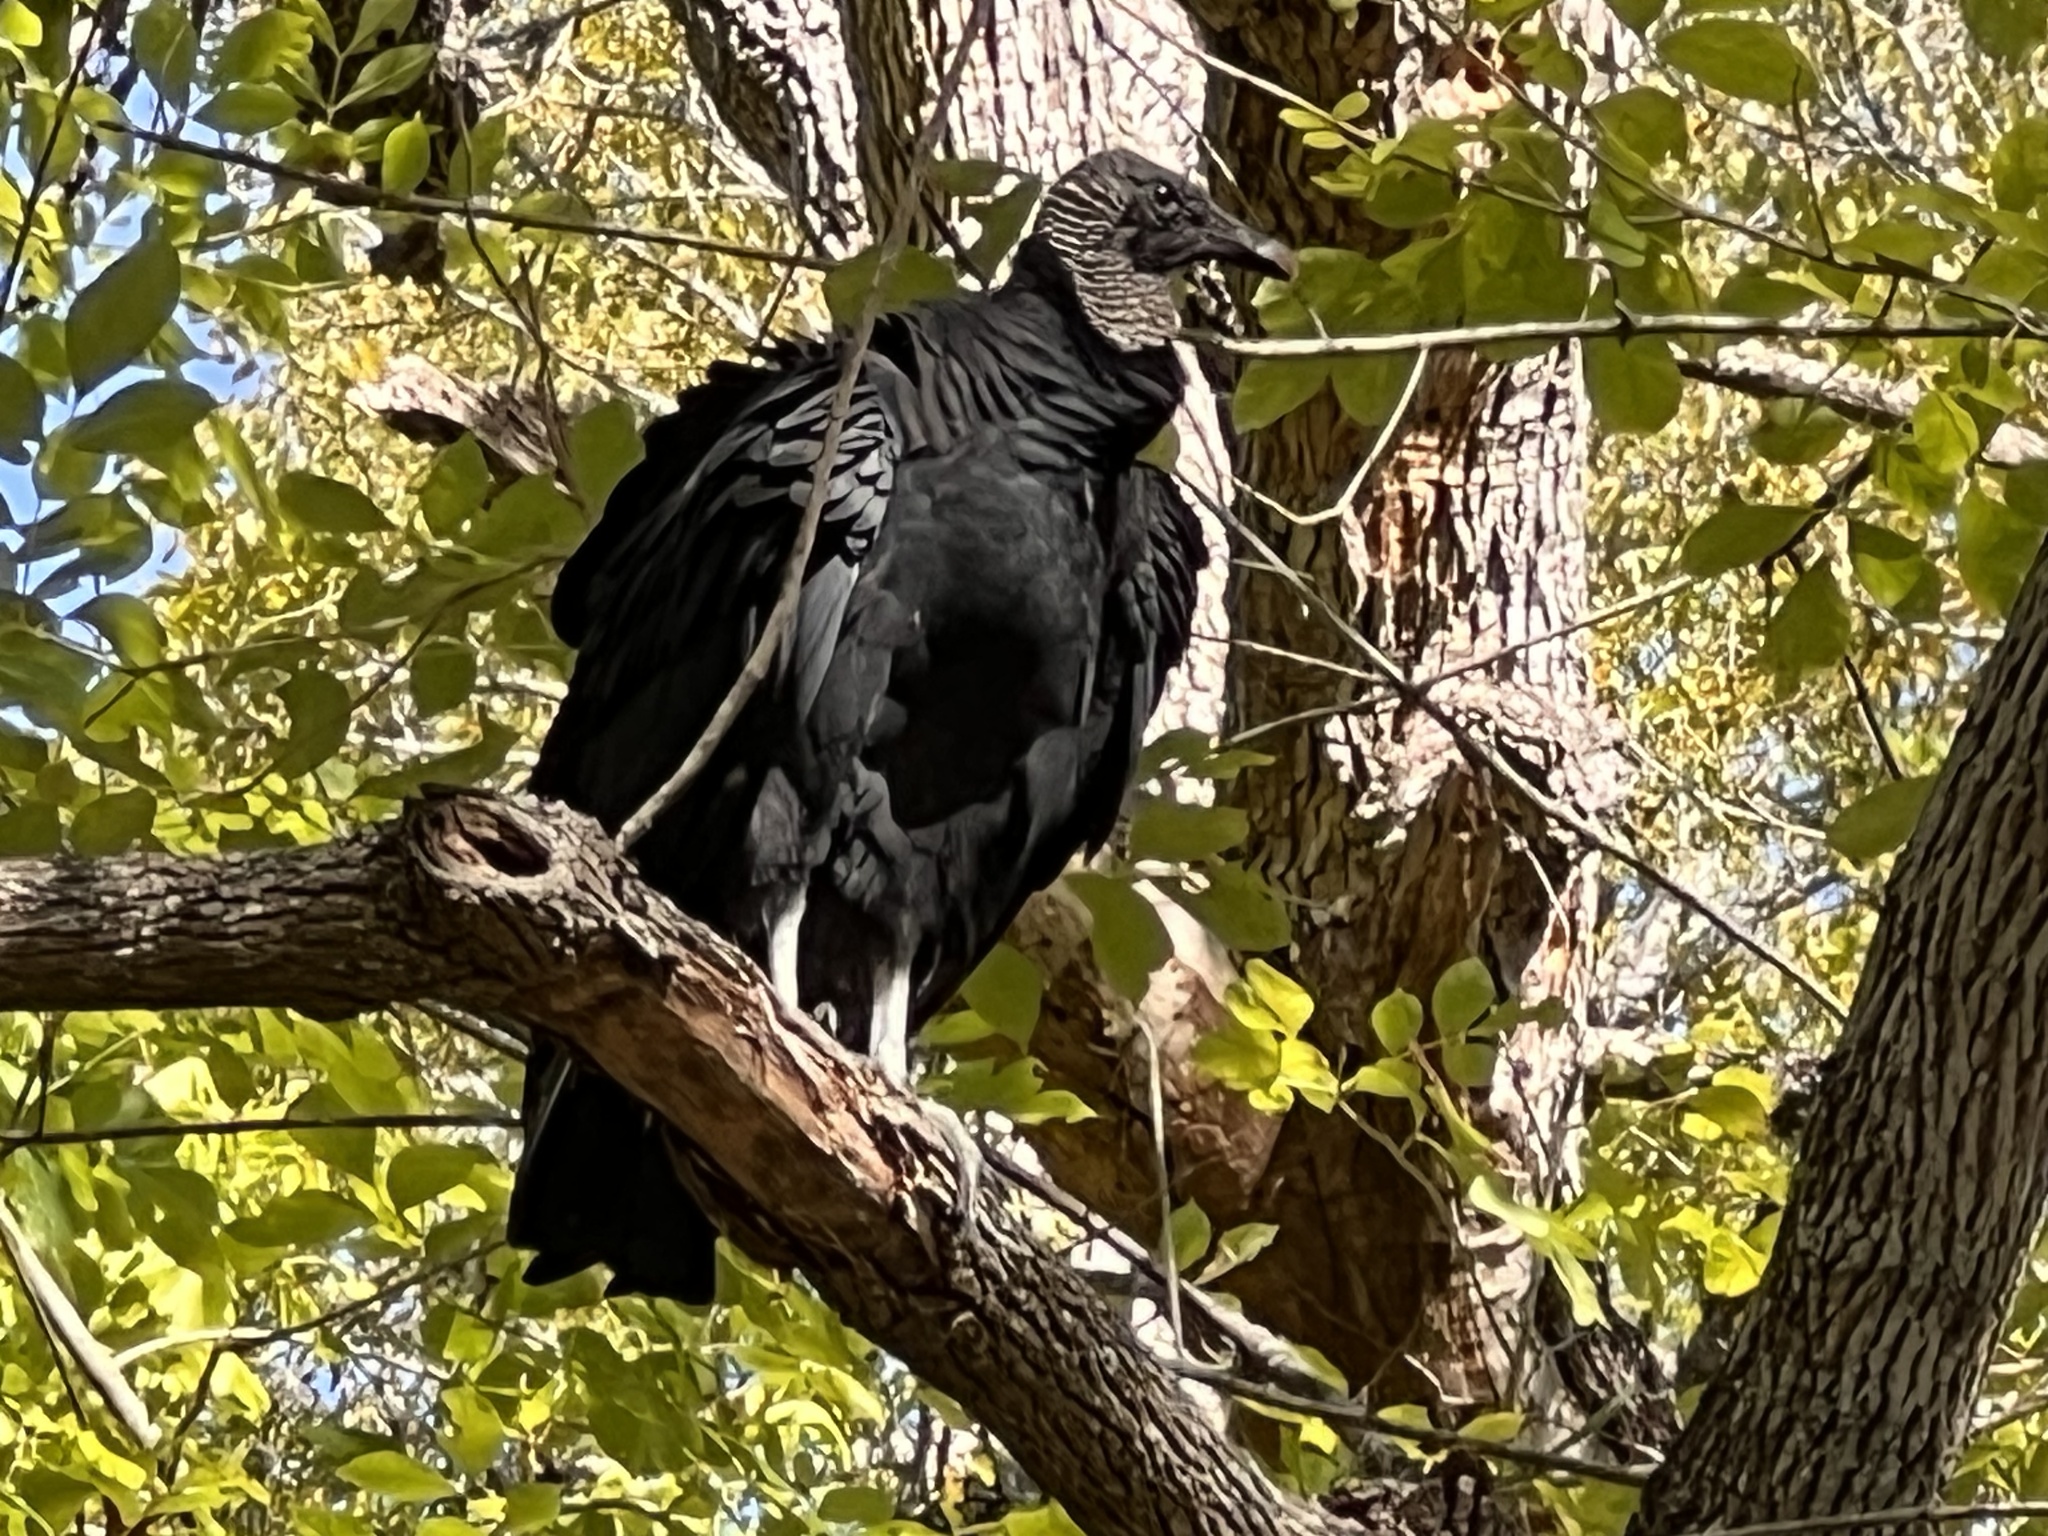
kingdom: Animalia
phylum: Chordata
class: Aves
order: Accipitriformes
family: Cathartidae
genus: Coragyps
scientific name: Coragyps atratus
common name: Black vulture
